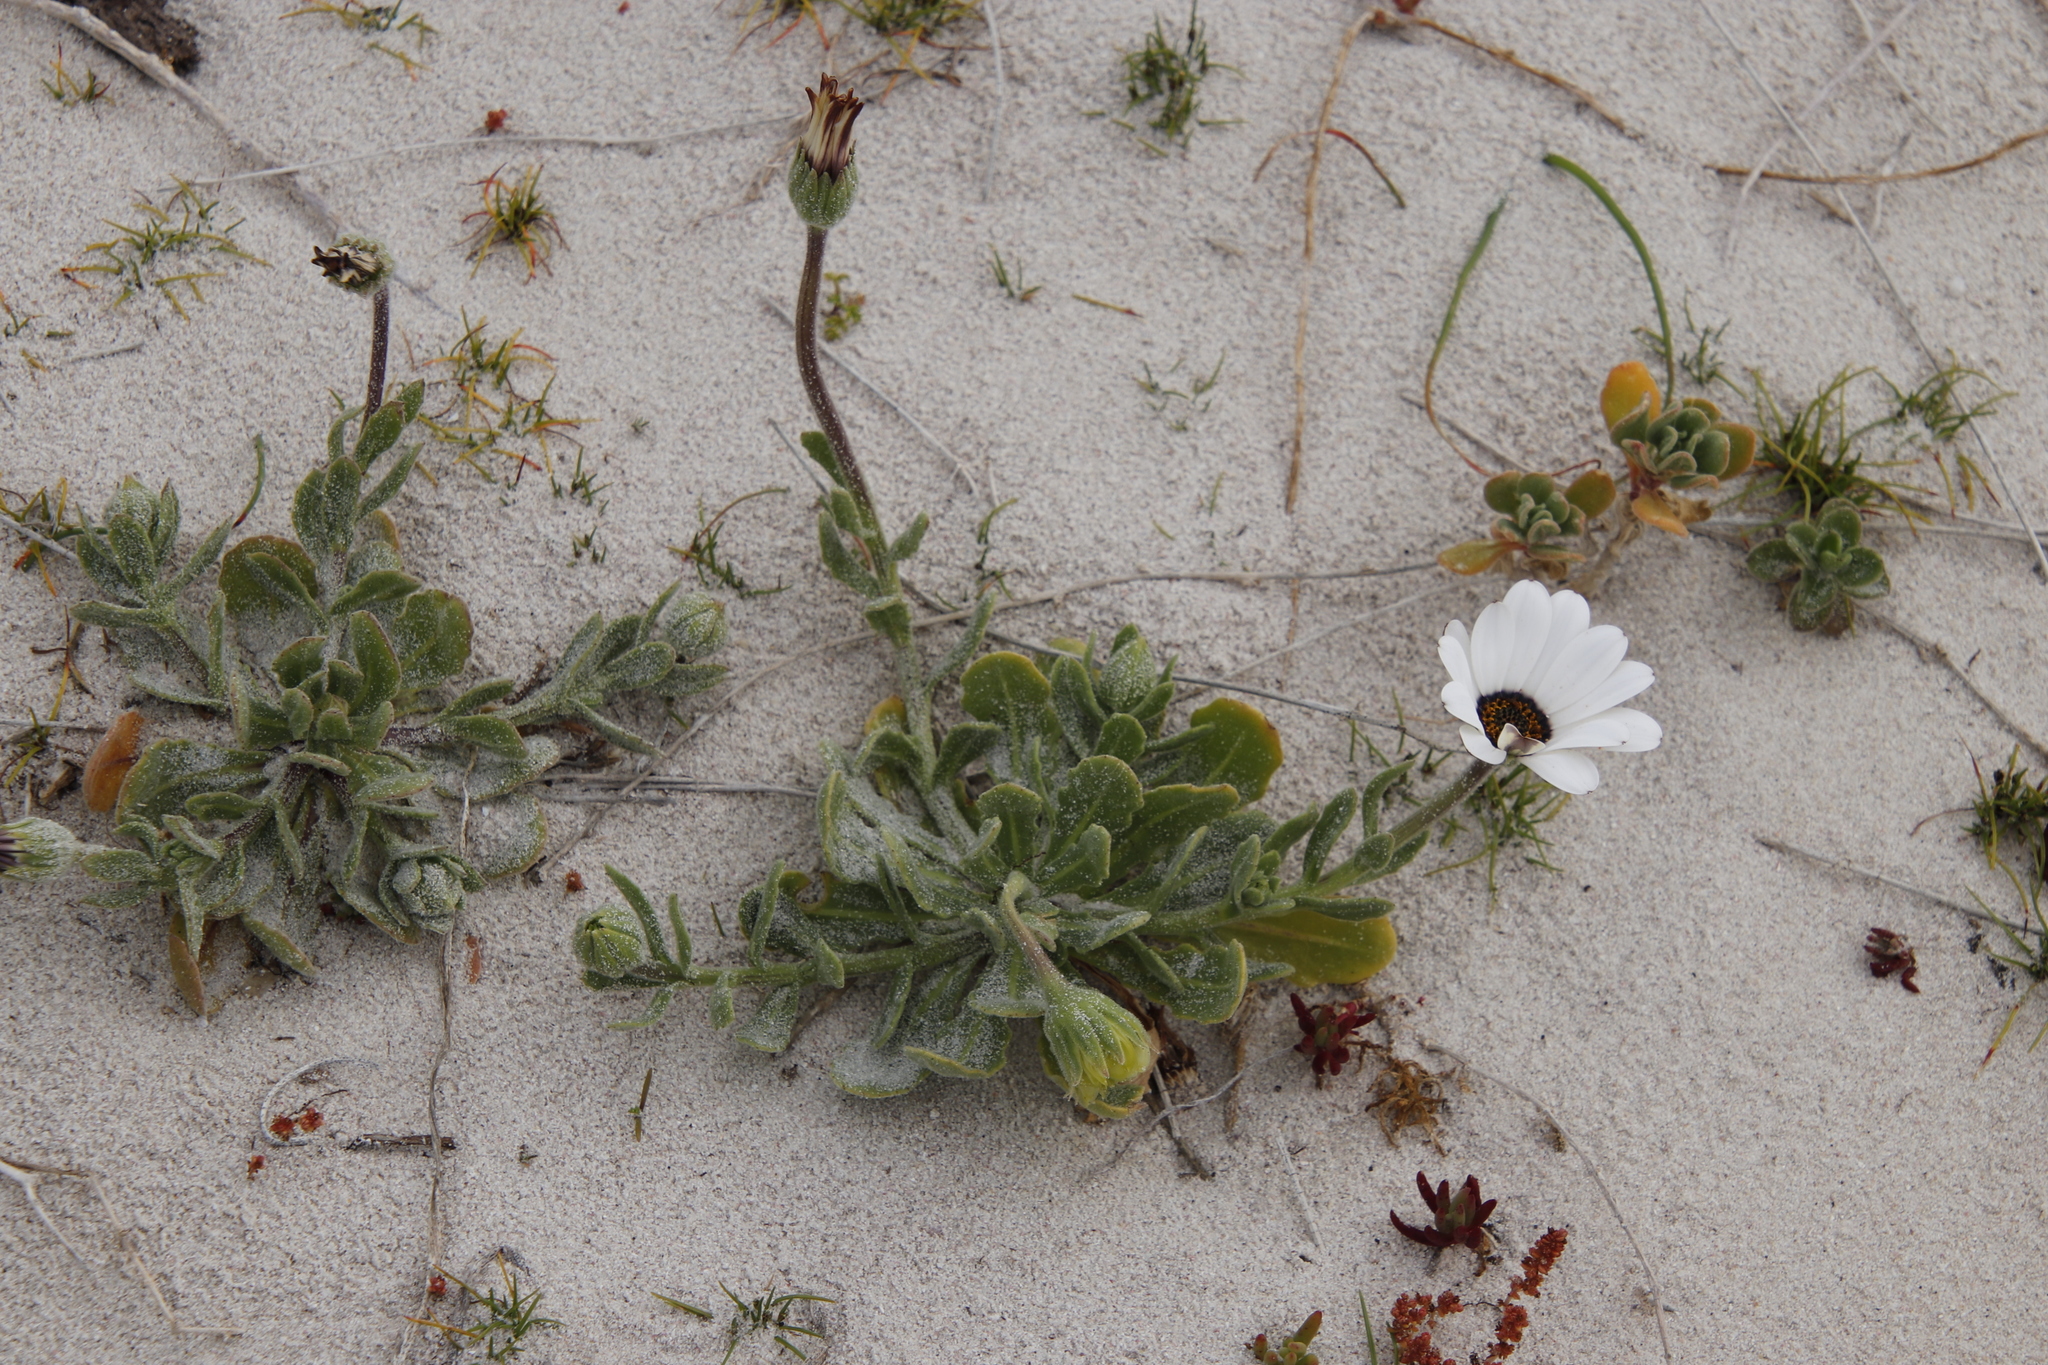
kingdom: Plantae
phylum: Tracheophyta
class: Magnoliopsida
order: Asterales
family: Asteraceae
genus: Dimorphotheca
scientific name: Dimorphotheca pluvialis
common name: Weather prophet
